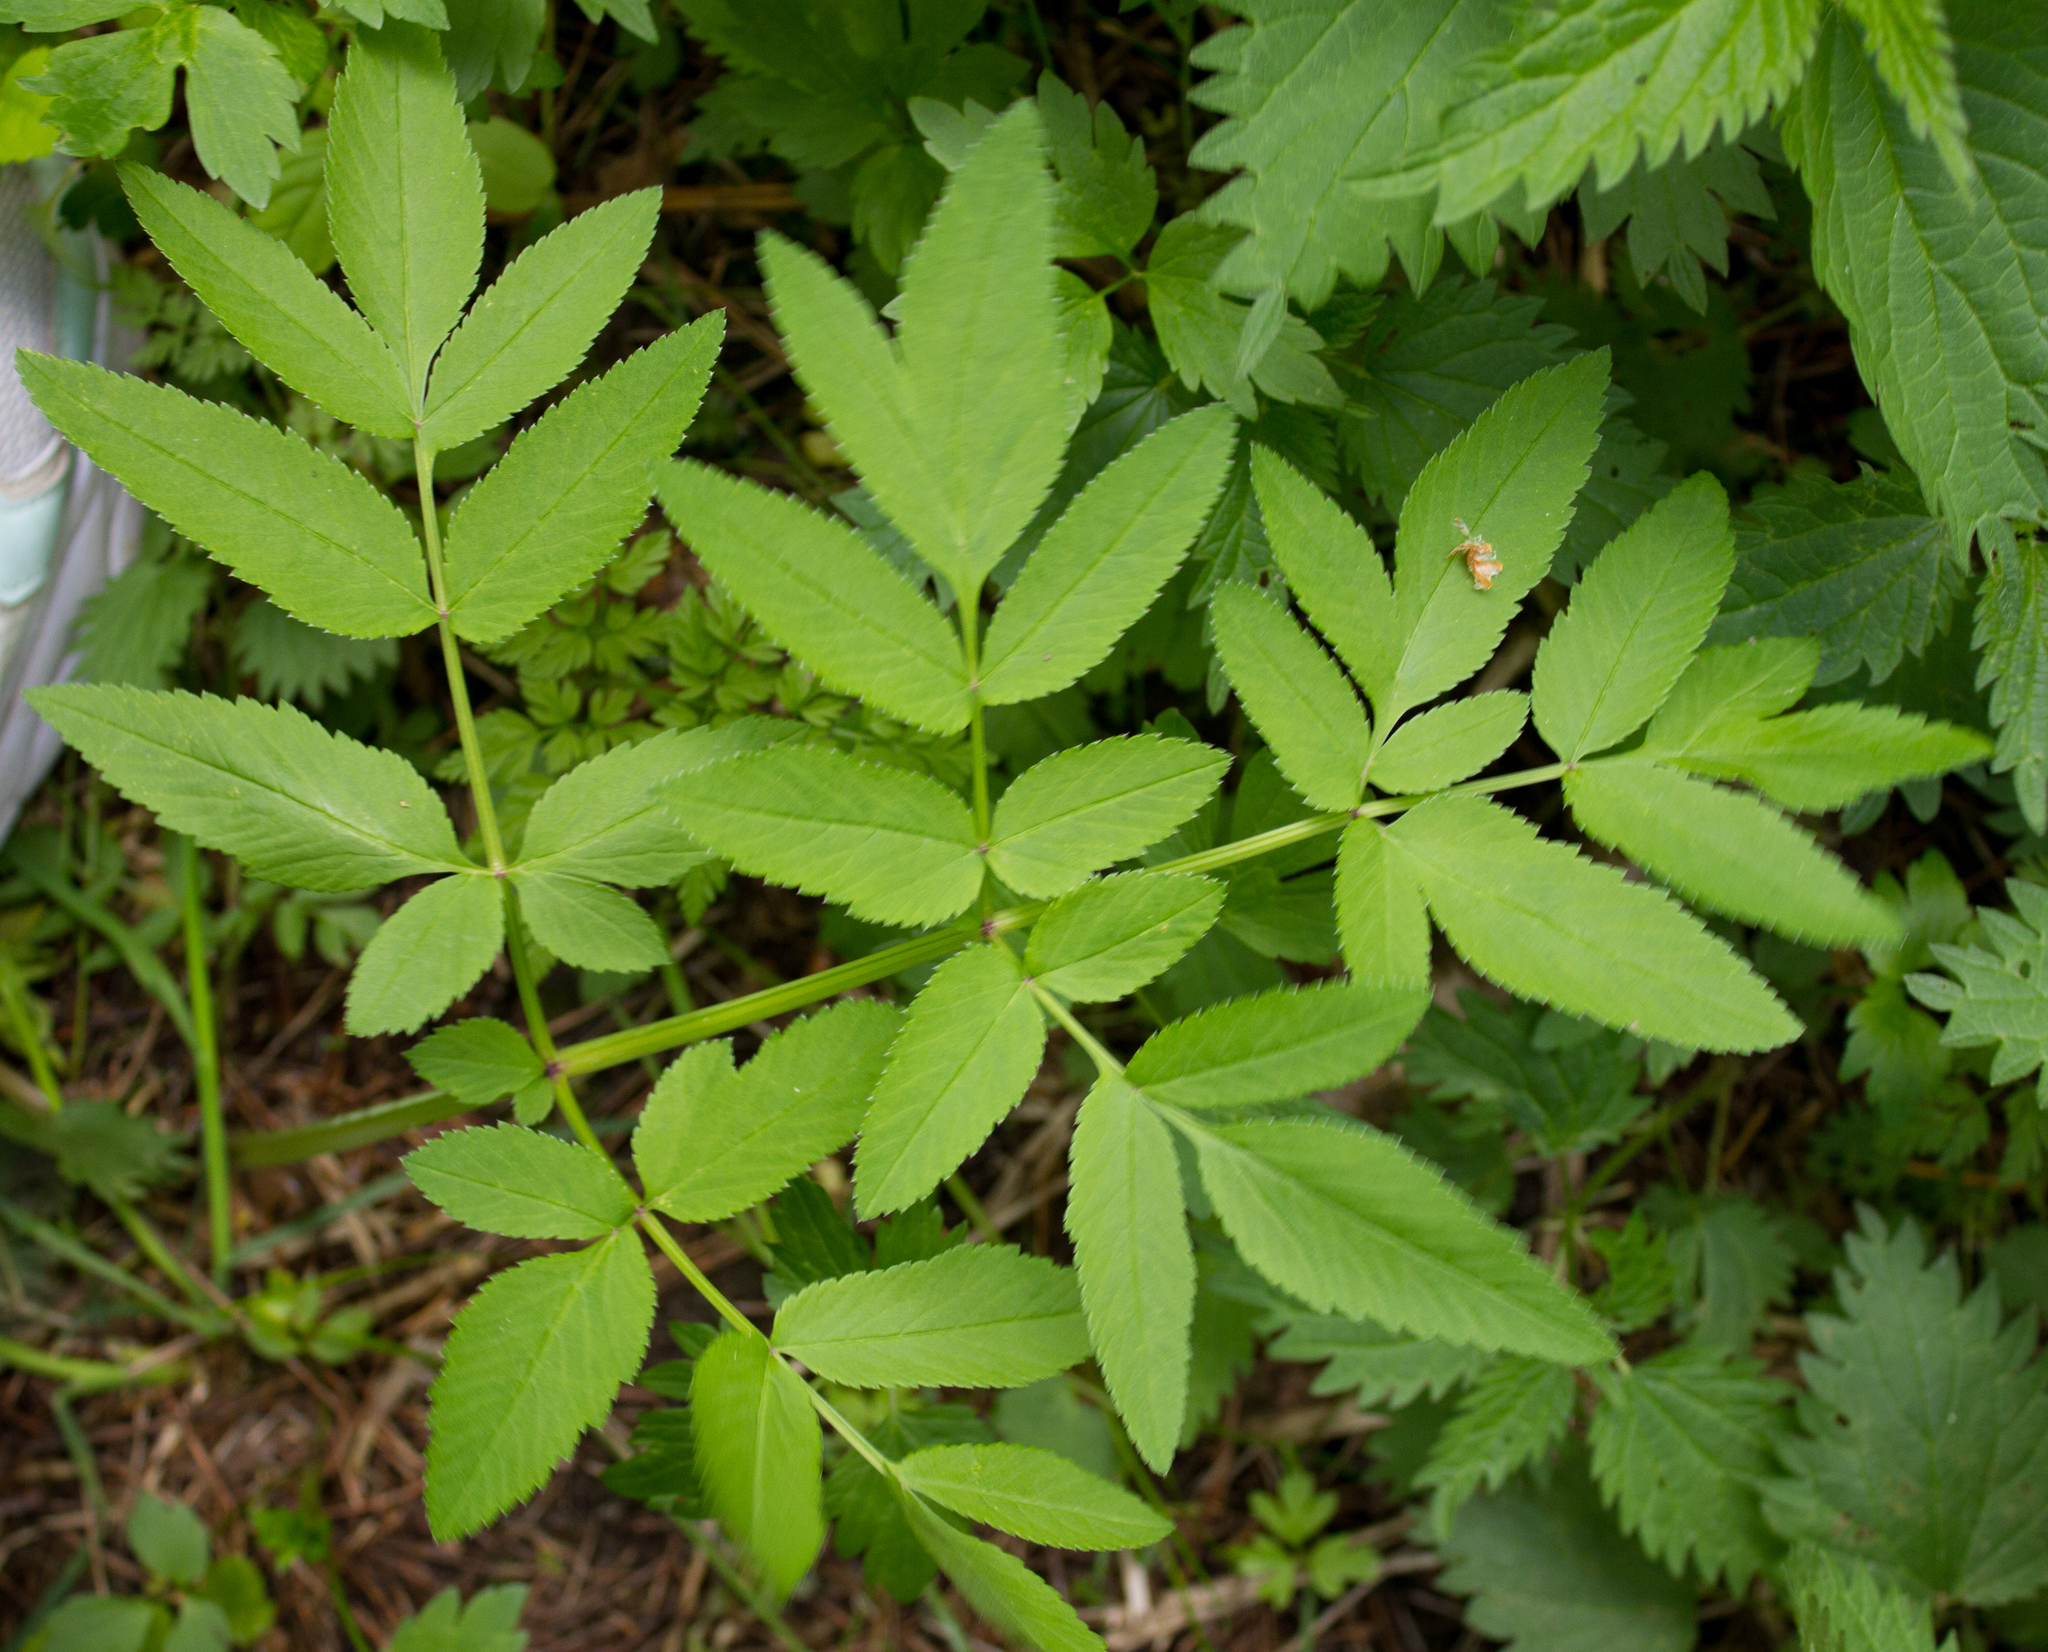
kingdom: Plantae
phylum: Tracheophyta
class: Magnoliopsida
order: Apiales
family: Apiaceae
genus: Angelica
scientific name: Angelica sylvestris
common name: Wild angelica
